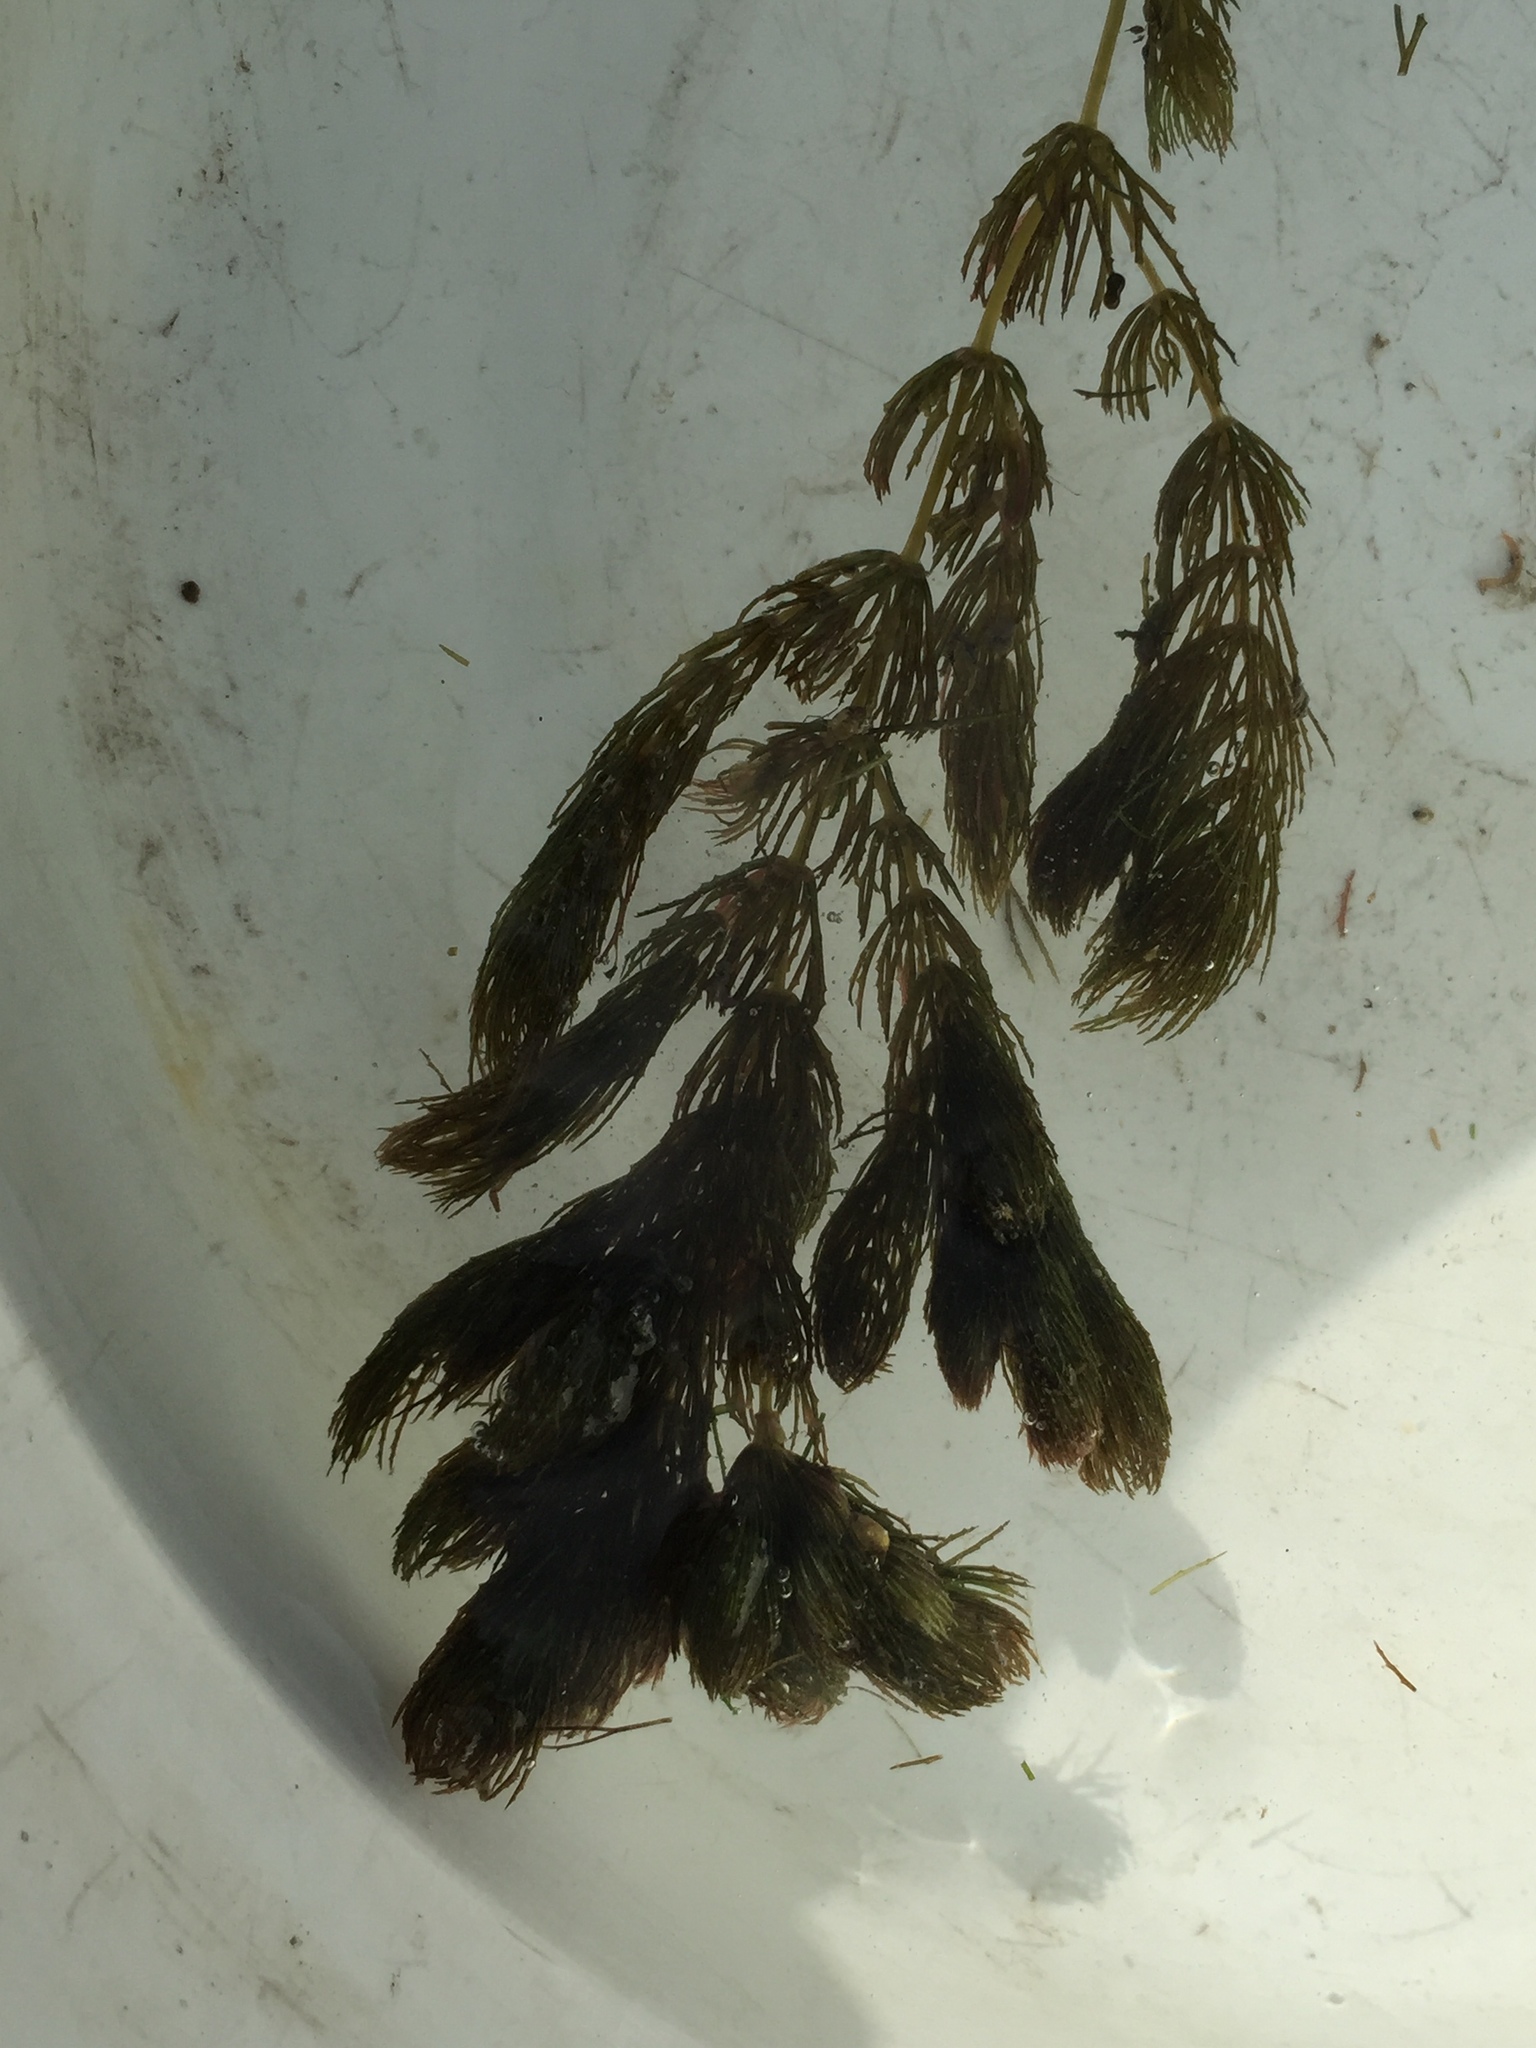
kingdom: Plantae
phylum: Tracheophyta
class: Magnoliopsida
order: Ceratophyllales
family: Ceratophyllaceae
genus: Ceratophyllum
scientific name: Ceratophyllum demersum
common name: Rigid hornwort
